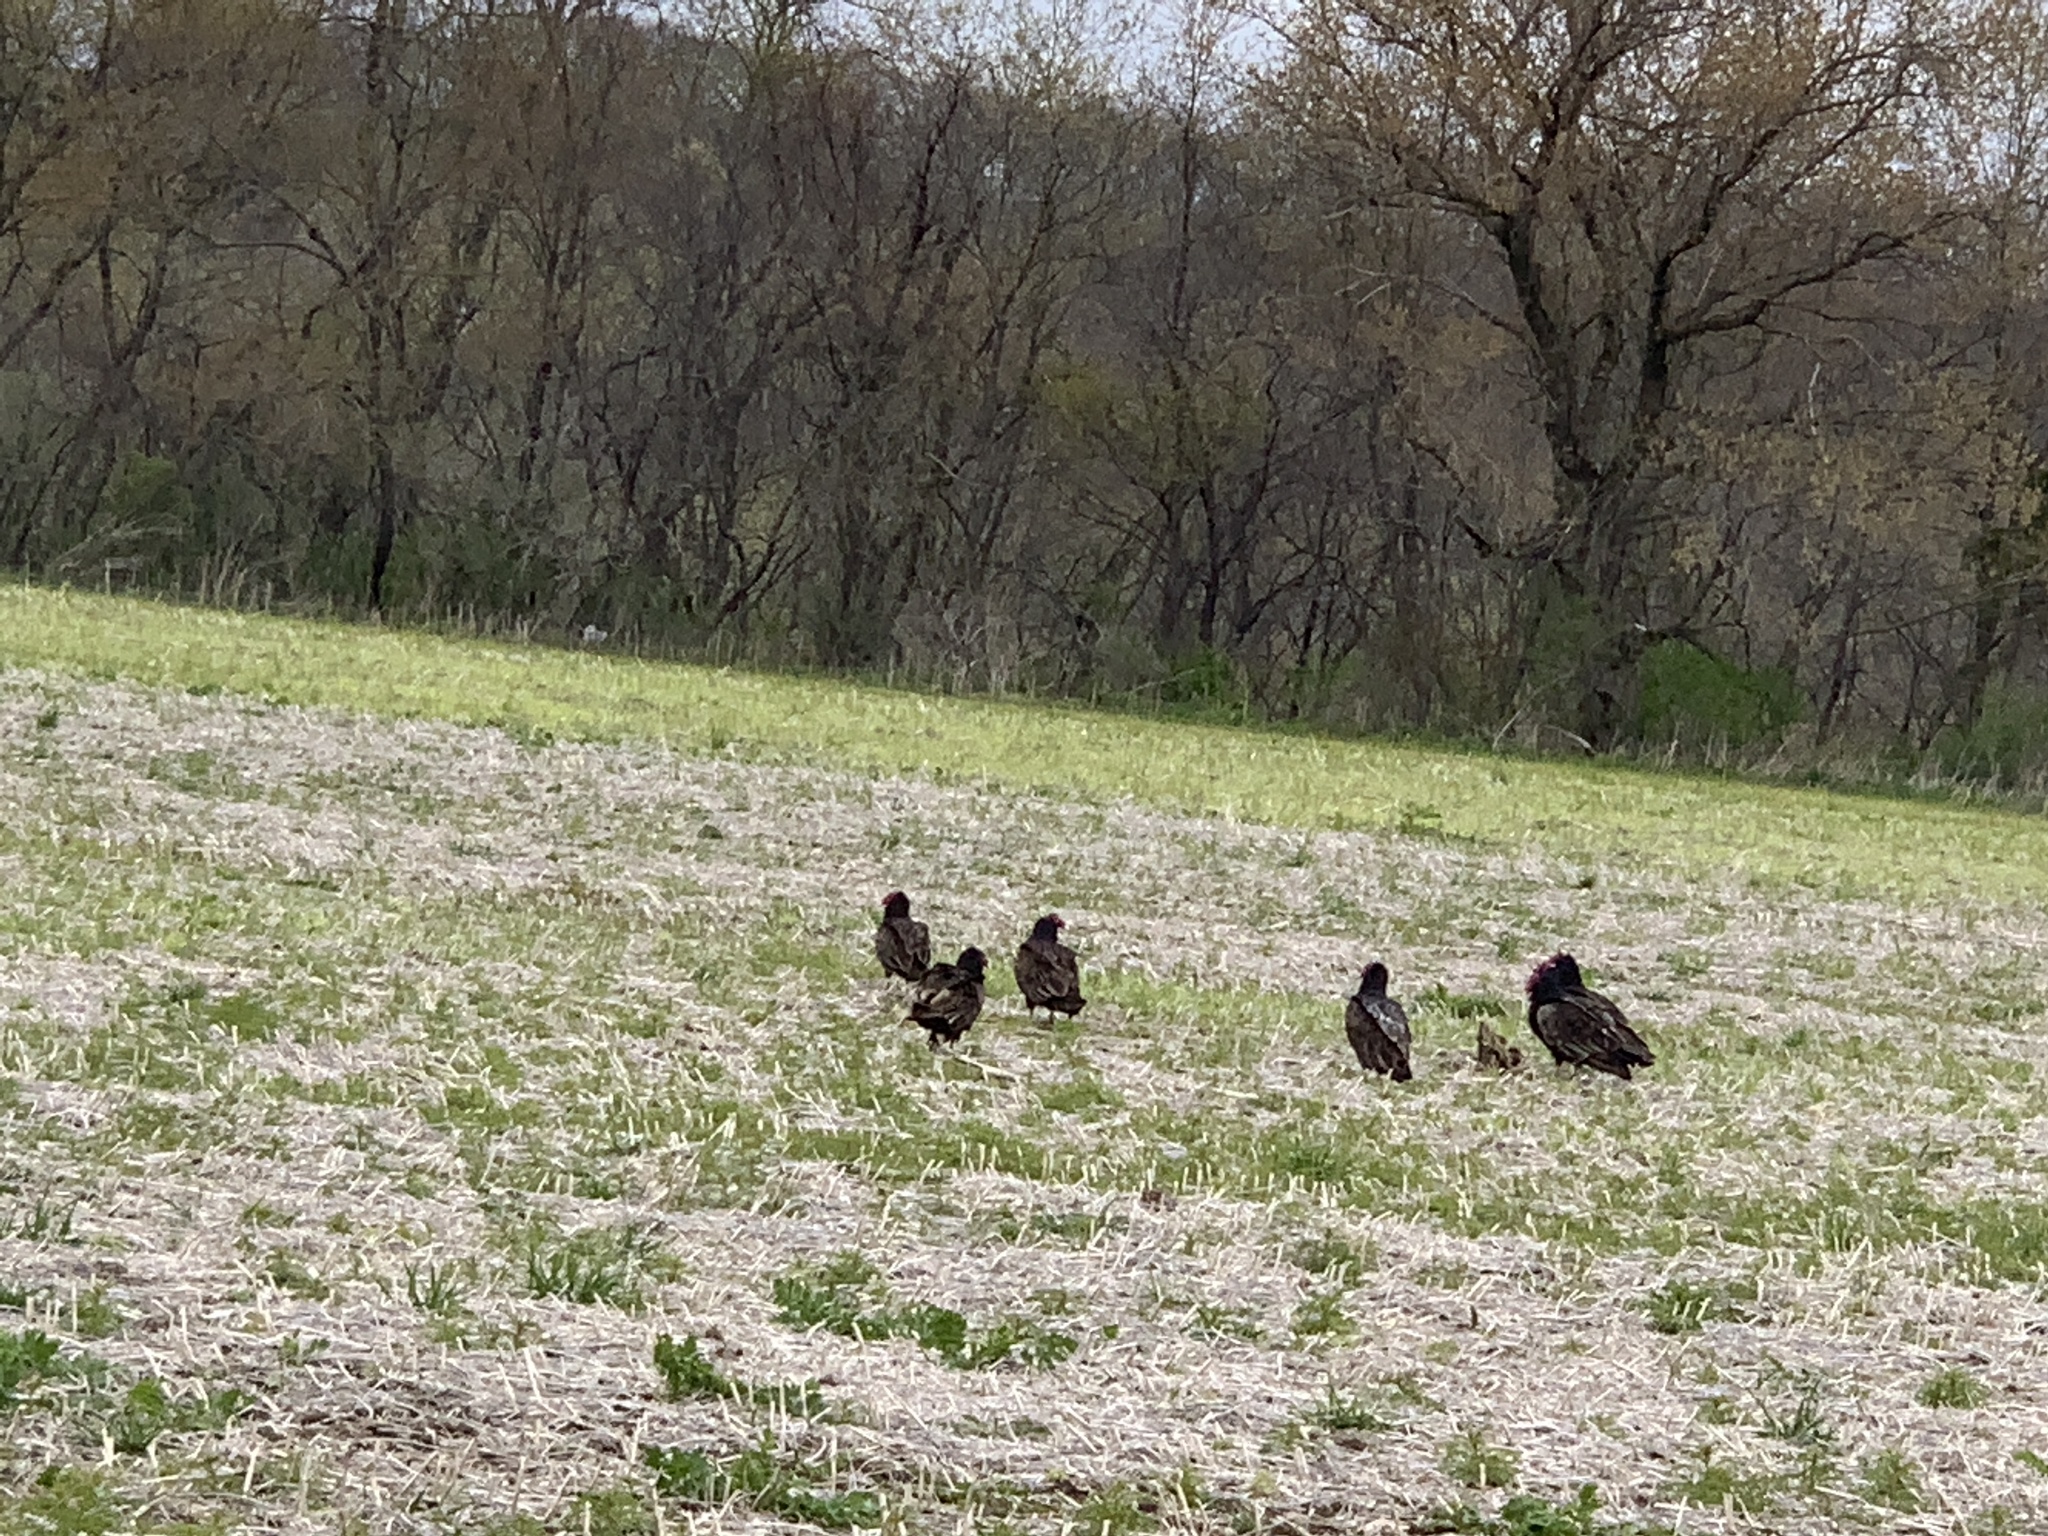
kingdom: Animalia
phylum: Chordata
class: Aves
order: Accipitriformes
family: Cathartidae
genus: Cathartes
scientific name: Cathartes aura
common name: Turkey vulture
